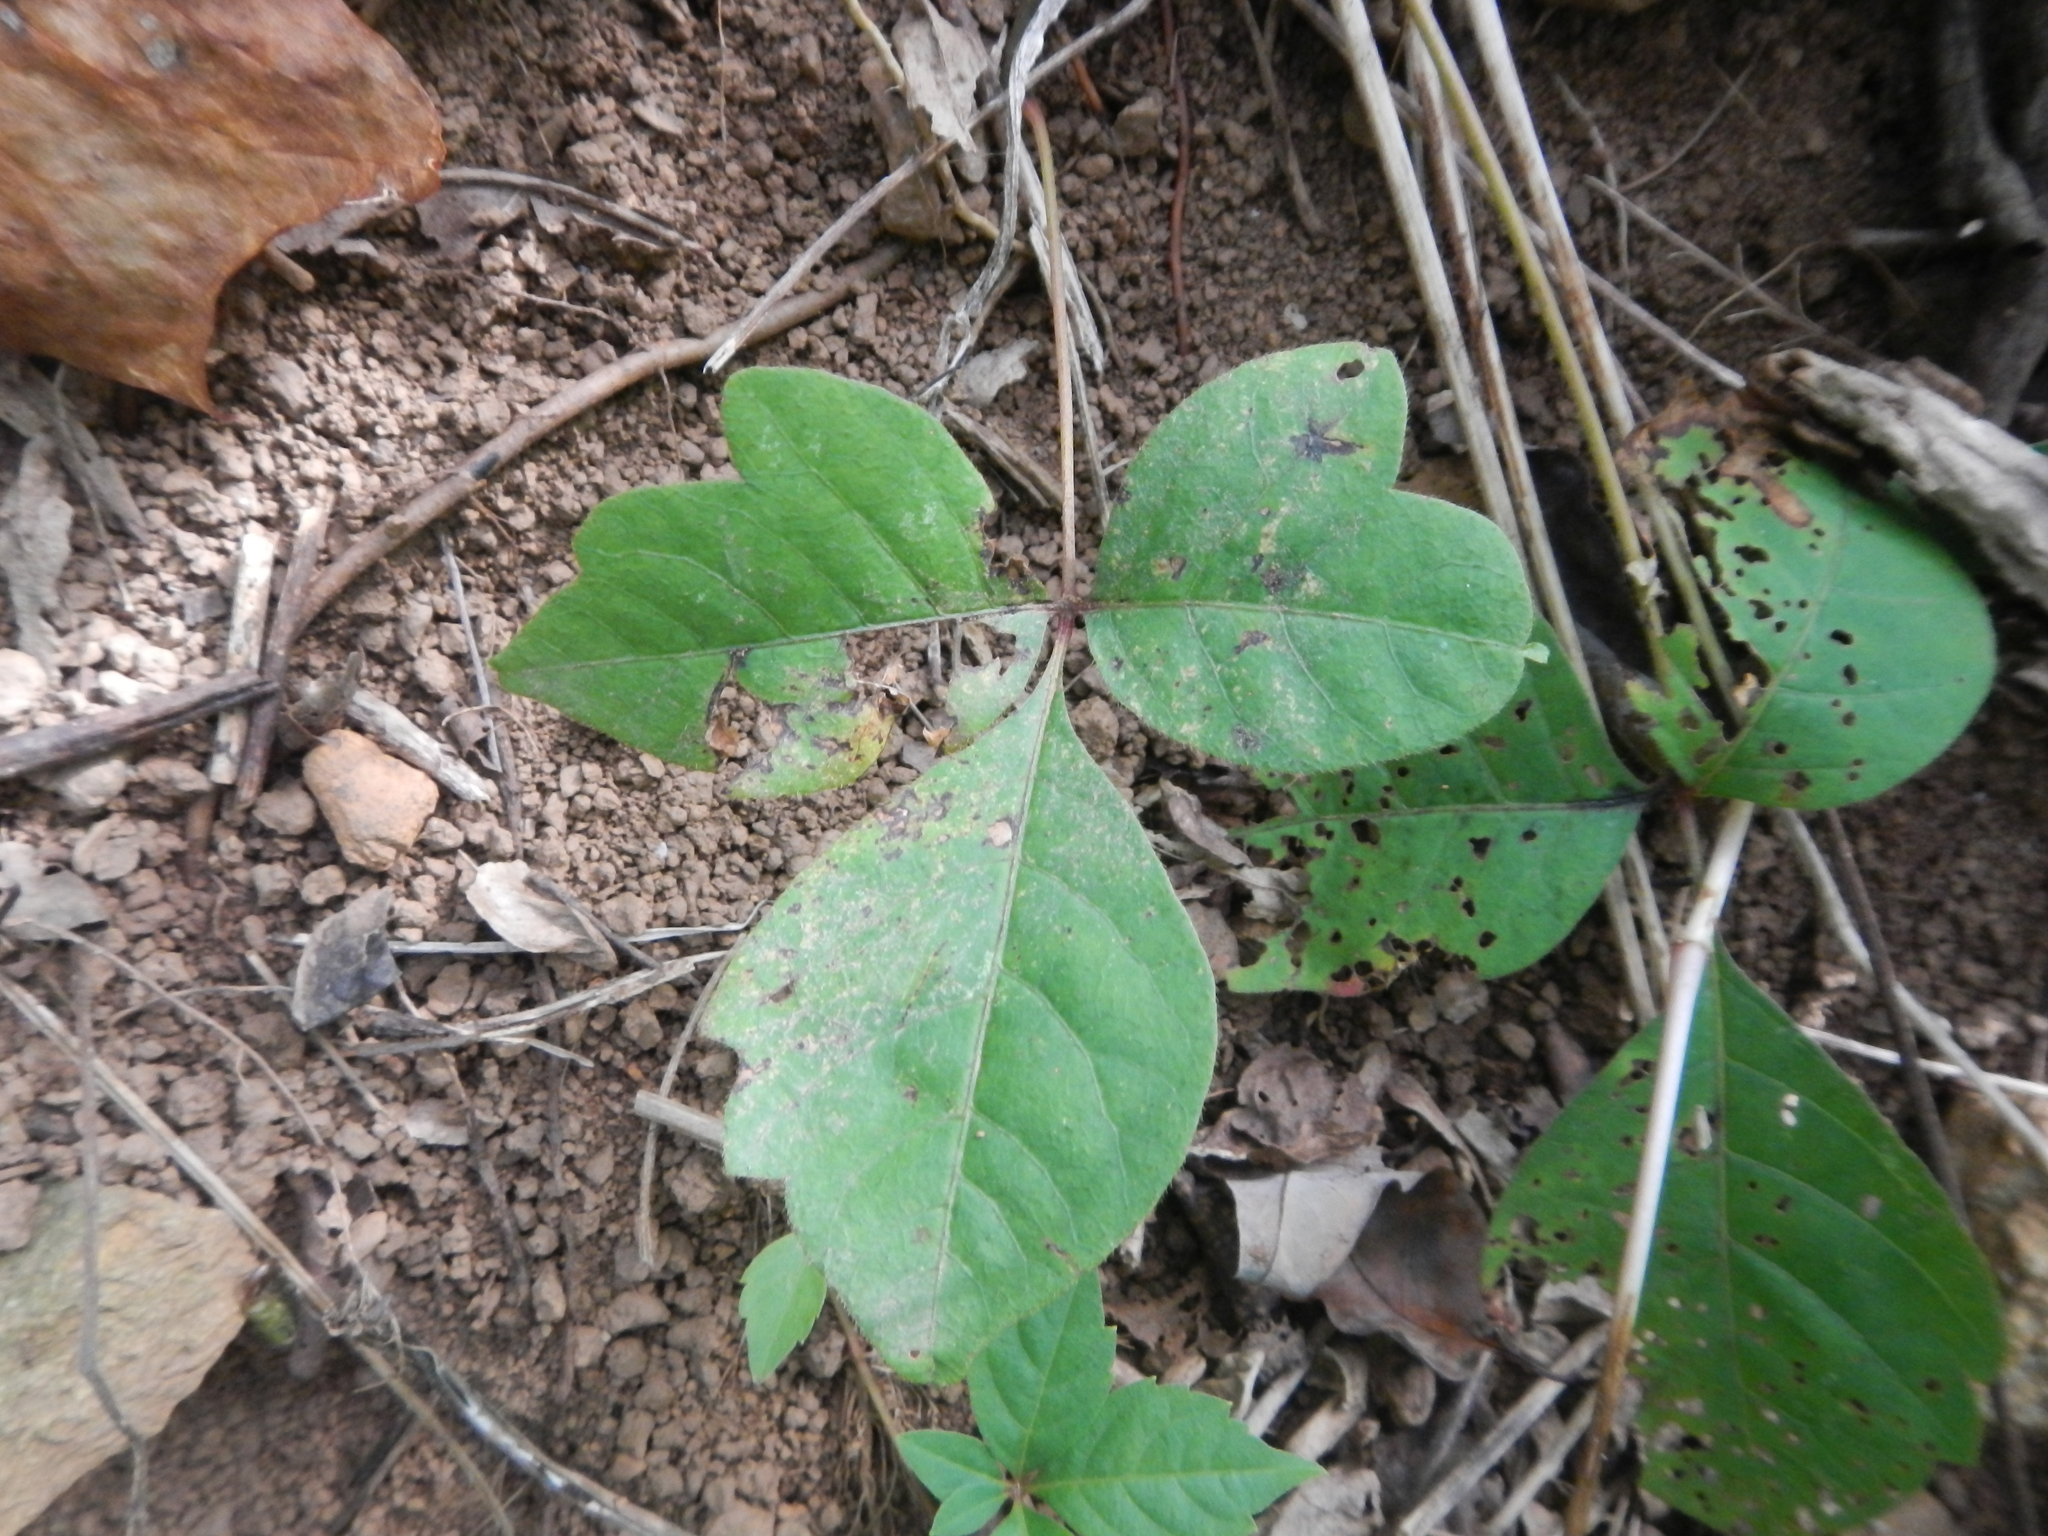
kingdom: Plantae
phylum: Tracheophyta
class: Magnoliopsida
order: Sapindales
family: Anacardiaceae
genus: Toxicodendron
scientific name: Toxicodendron radicans
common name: Poison ivy
